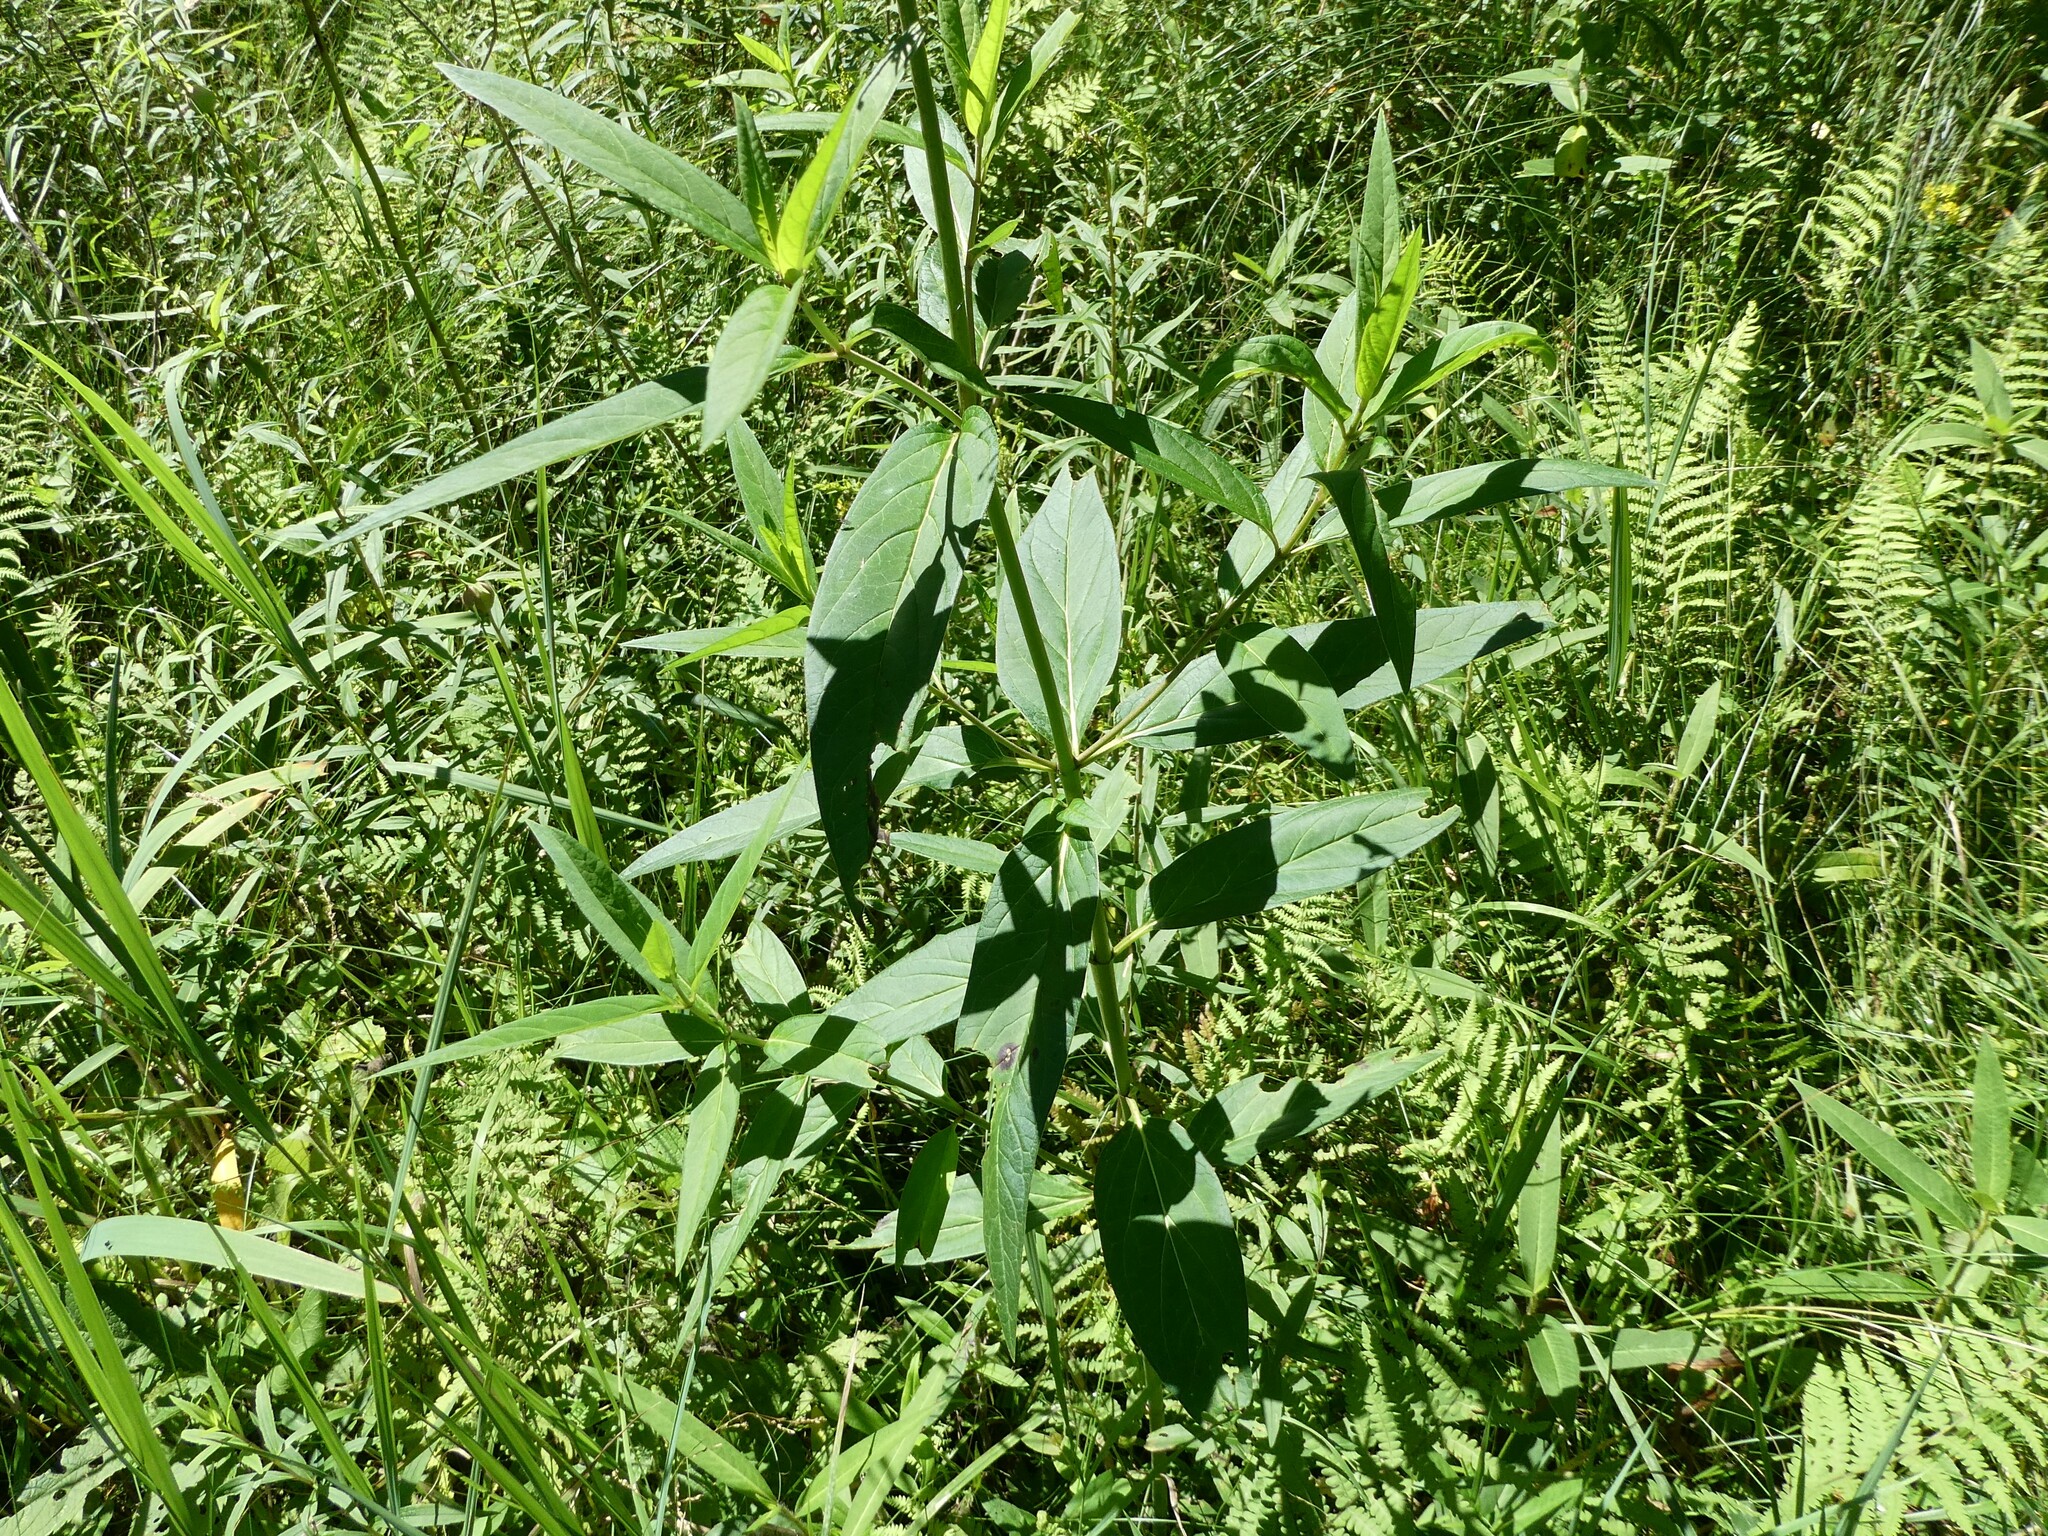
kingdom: Plantae
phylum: Tracheophyta
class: Magnoliopsida
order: Gentianales
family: Apocynaceae
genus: Asclepias
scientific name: Asclepias incarnata
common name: Swamp milkweed
